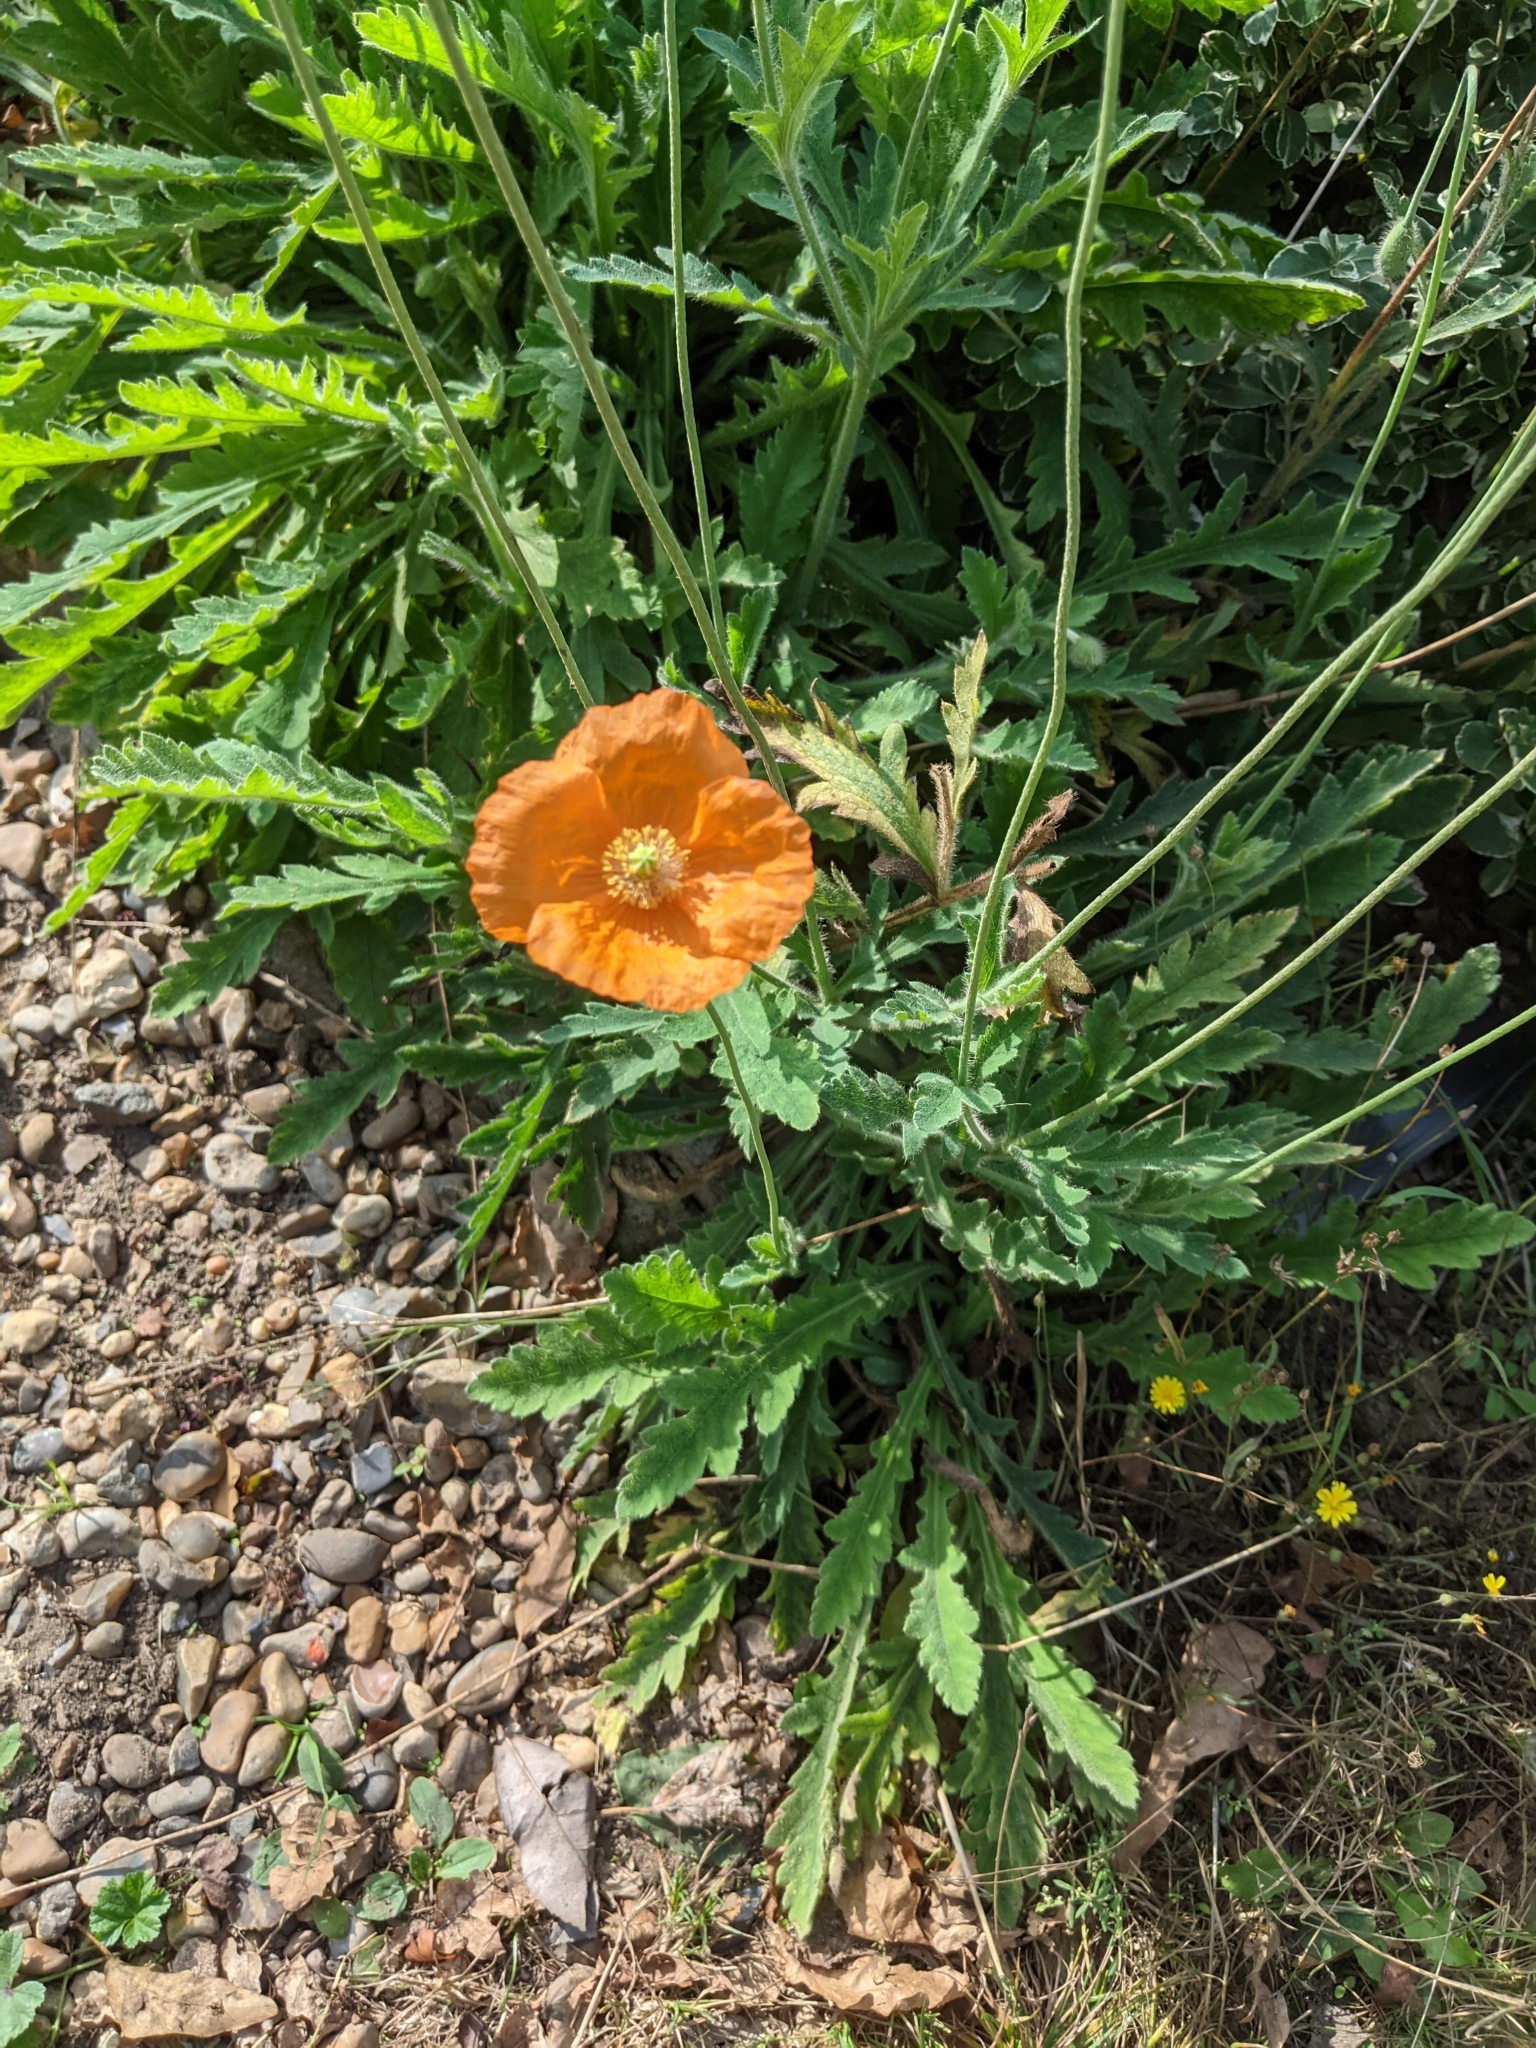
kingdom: Plantae
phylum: Tracheophyta
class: Magnoliopsida
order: Ranunculales
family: Papaveraceae
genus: Papaver
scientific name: Papaver cambricum
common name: Poppy
